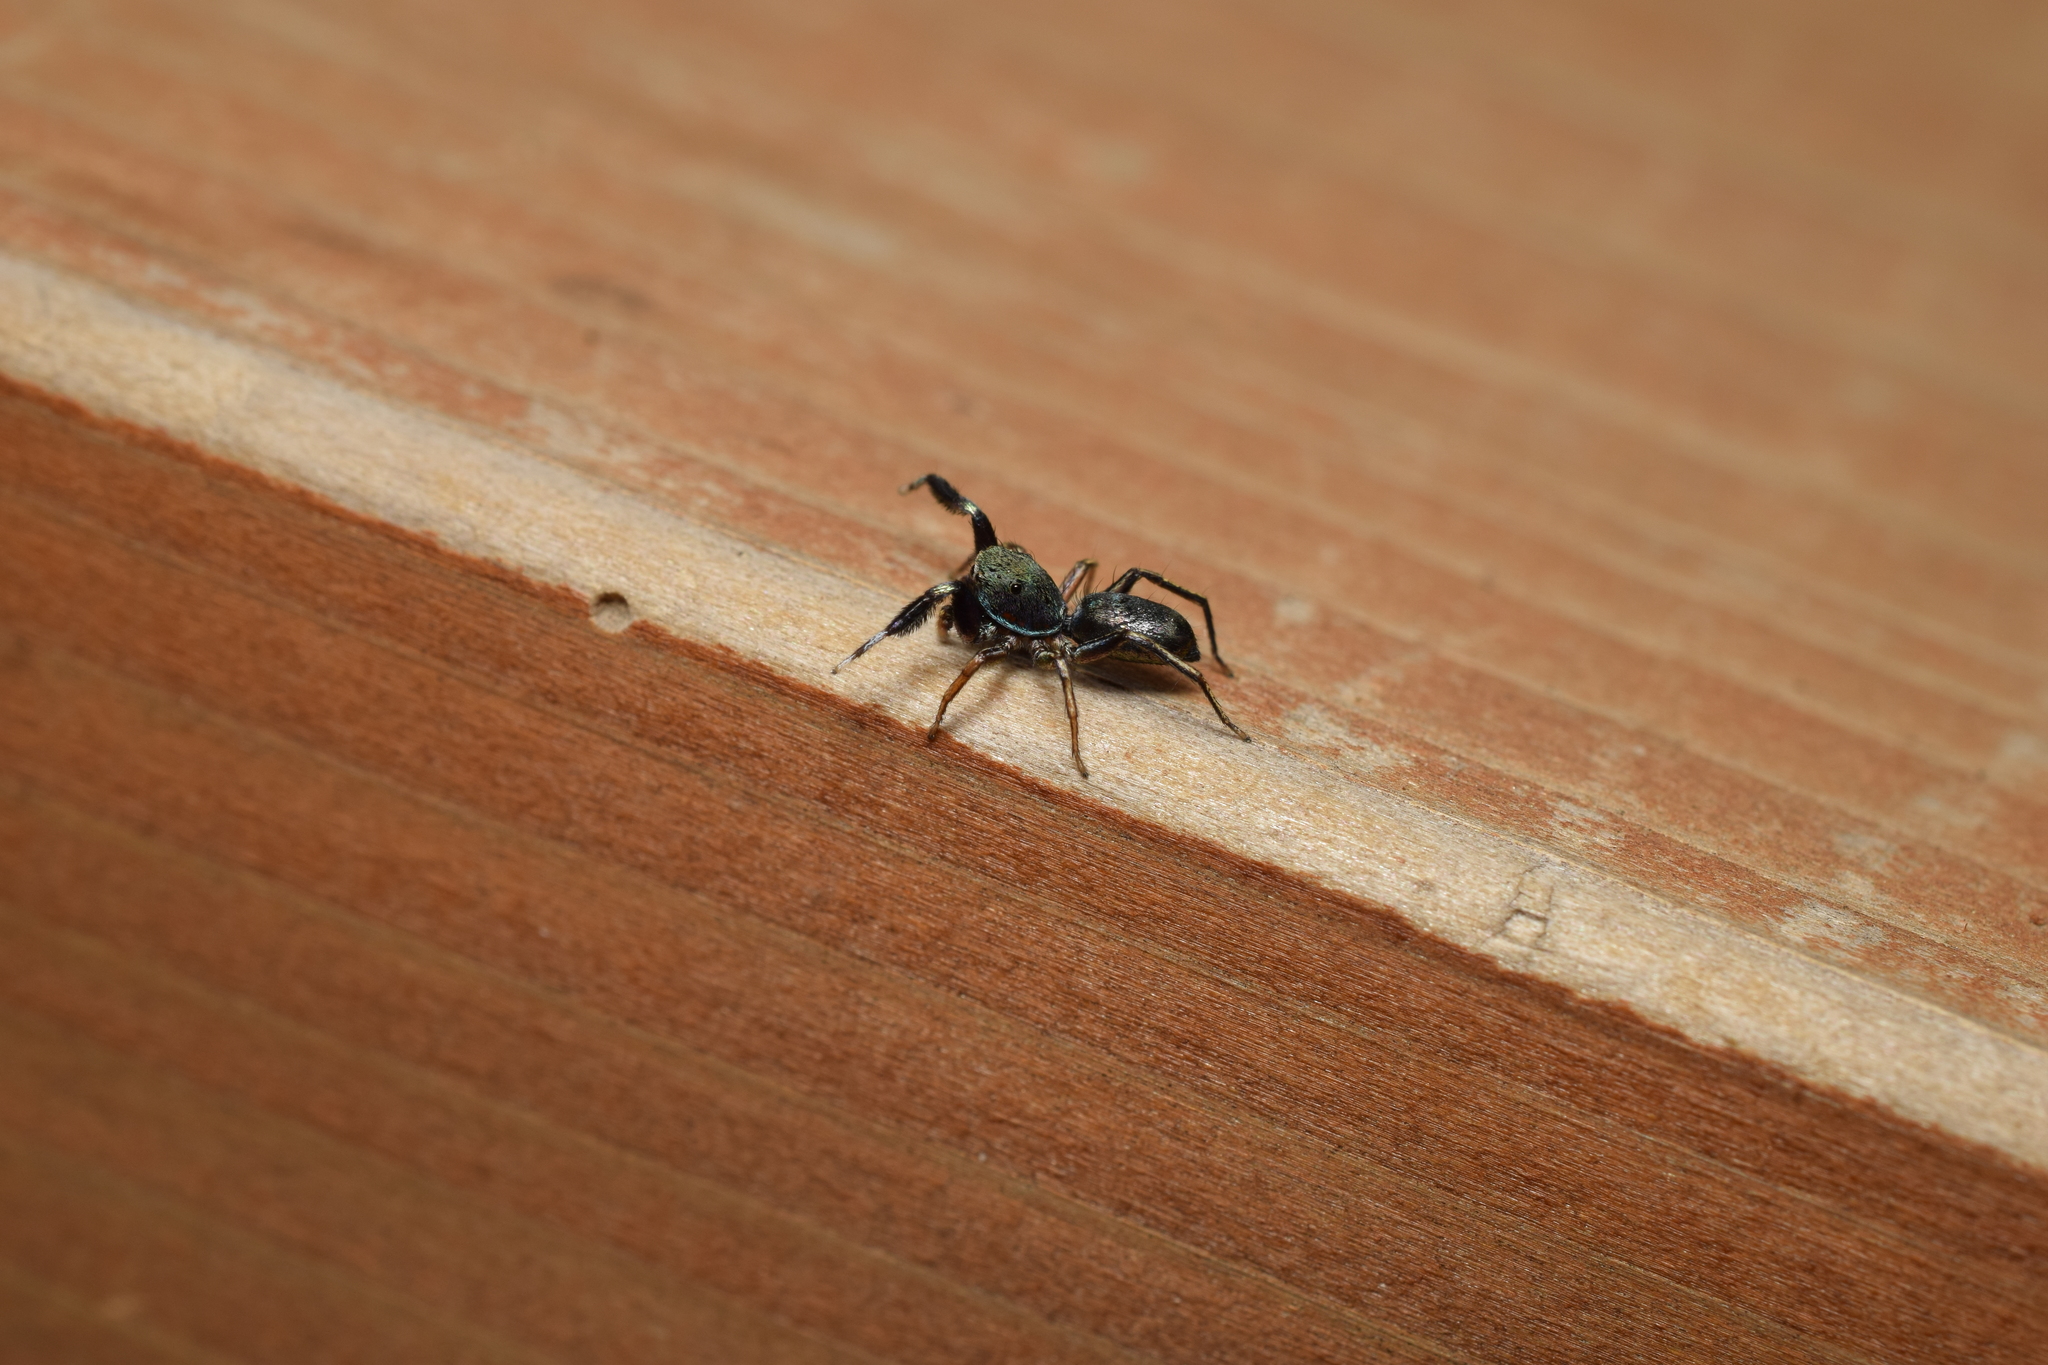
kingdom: Animalia
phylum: Arthropoda
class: Arachnida
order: Araneae
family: Salticidae
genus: Siler
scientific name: Siler cupreus
